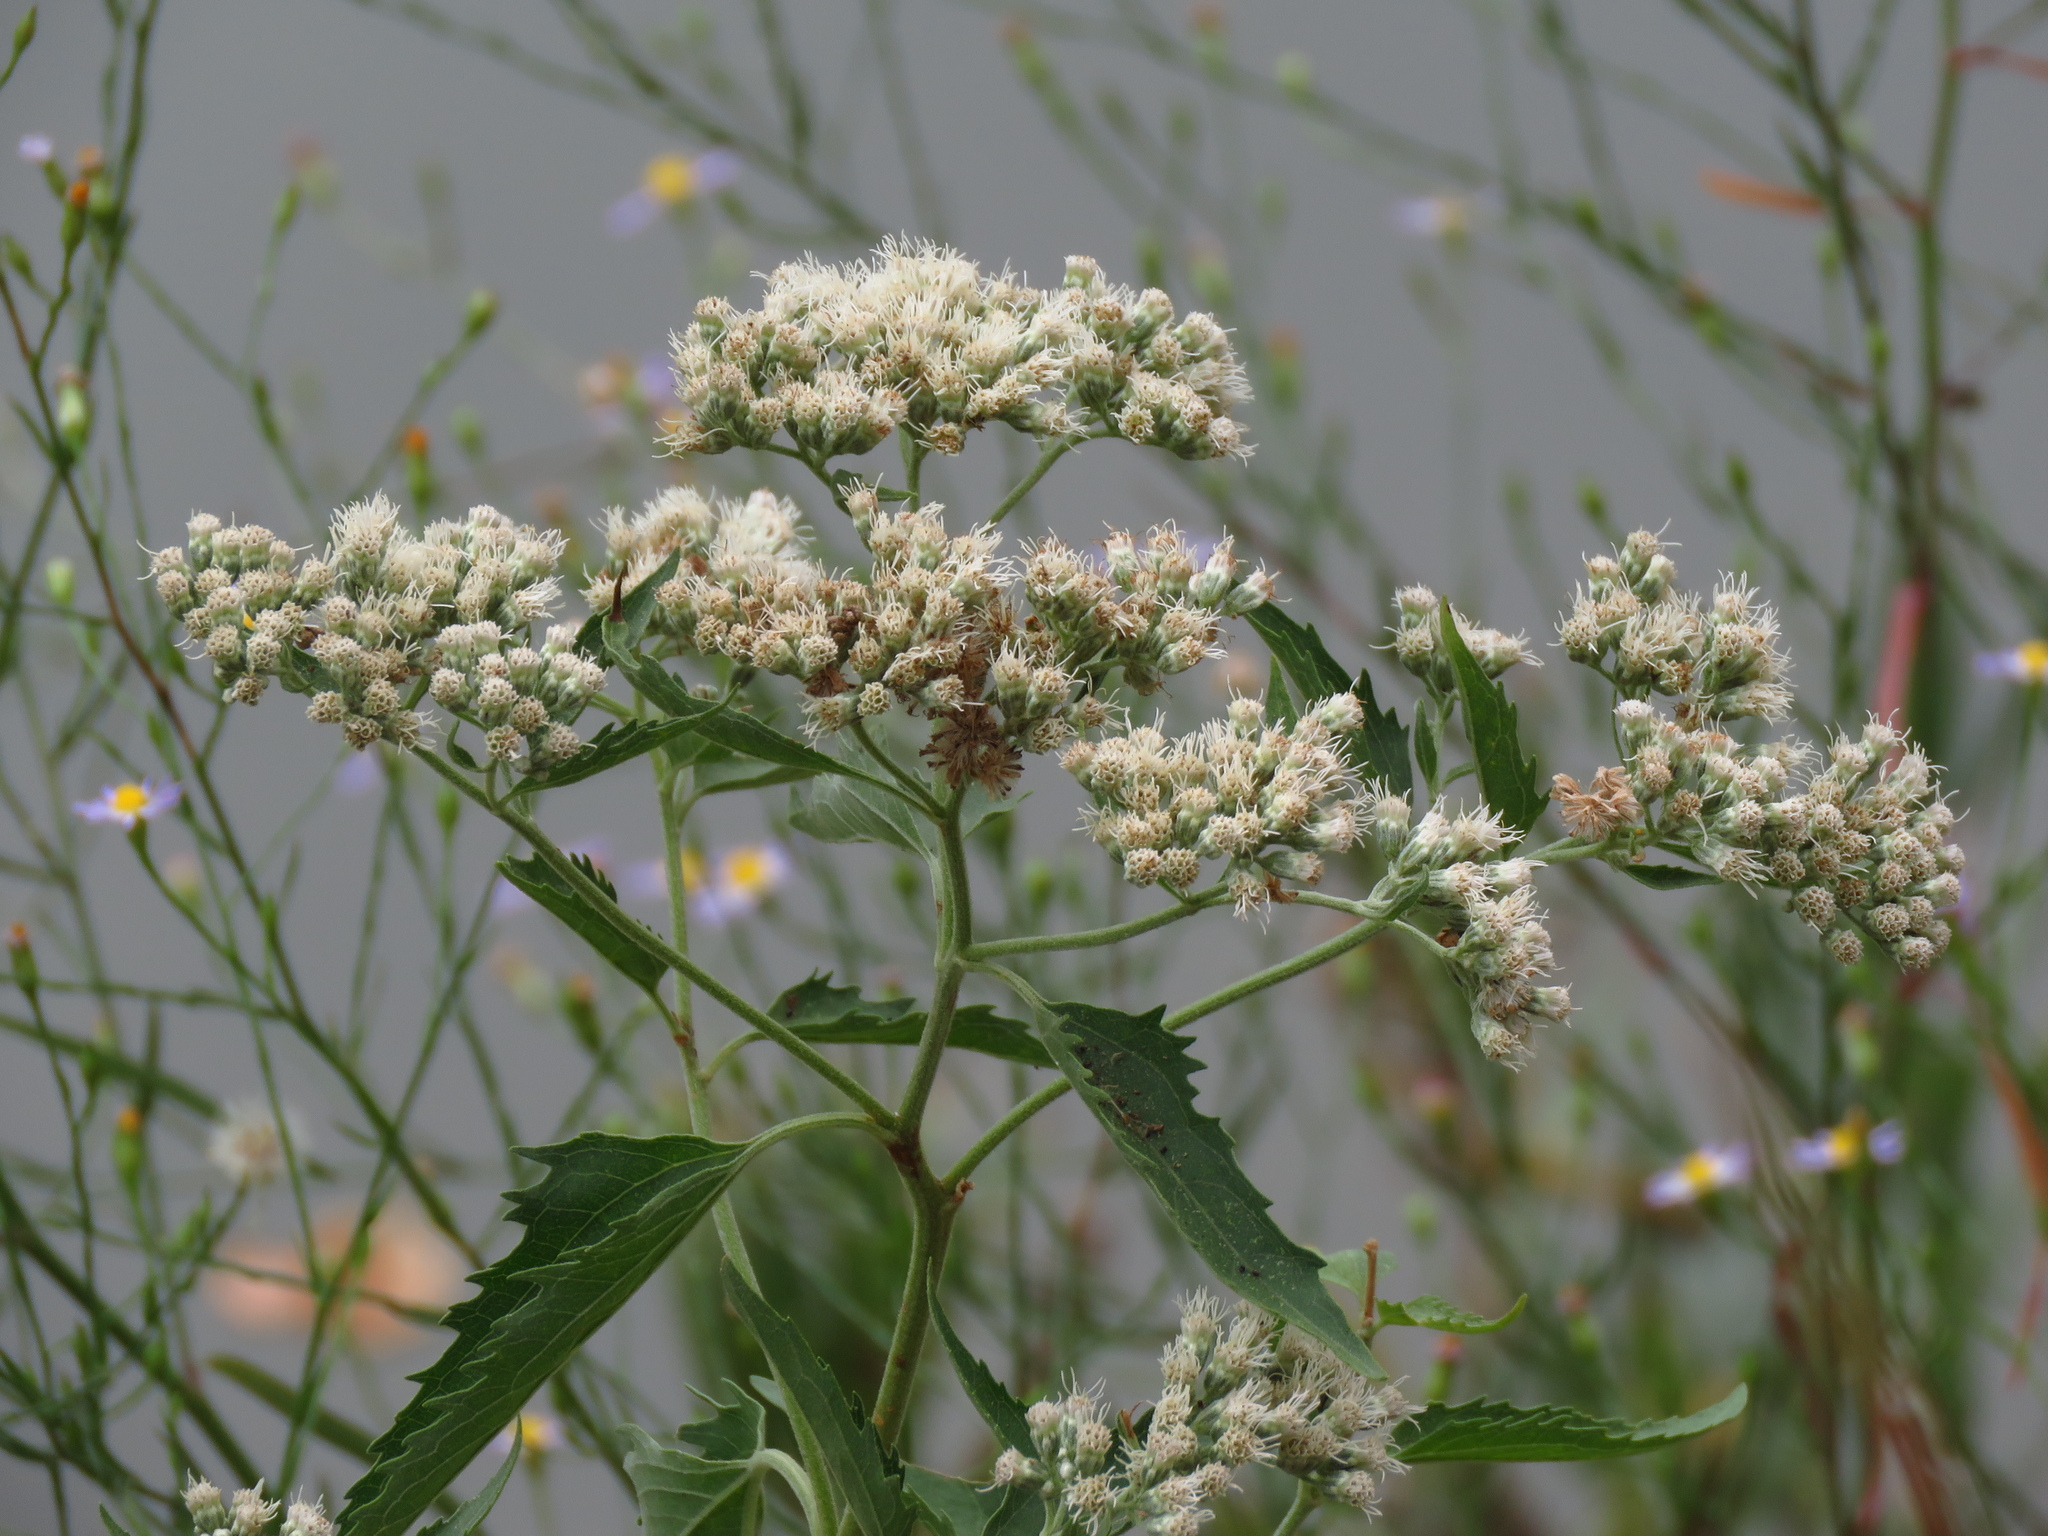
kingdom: Plantae
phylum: Tracheophyta
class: Magnoliopsida
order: Asterales
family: Asteraceae
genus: Eupatorium
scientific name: Eupatorium serotinum
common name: Late boneset
